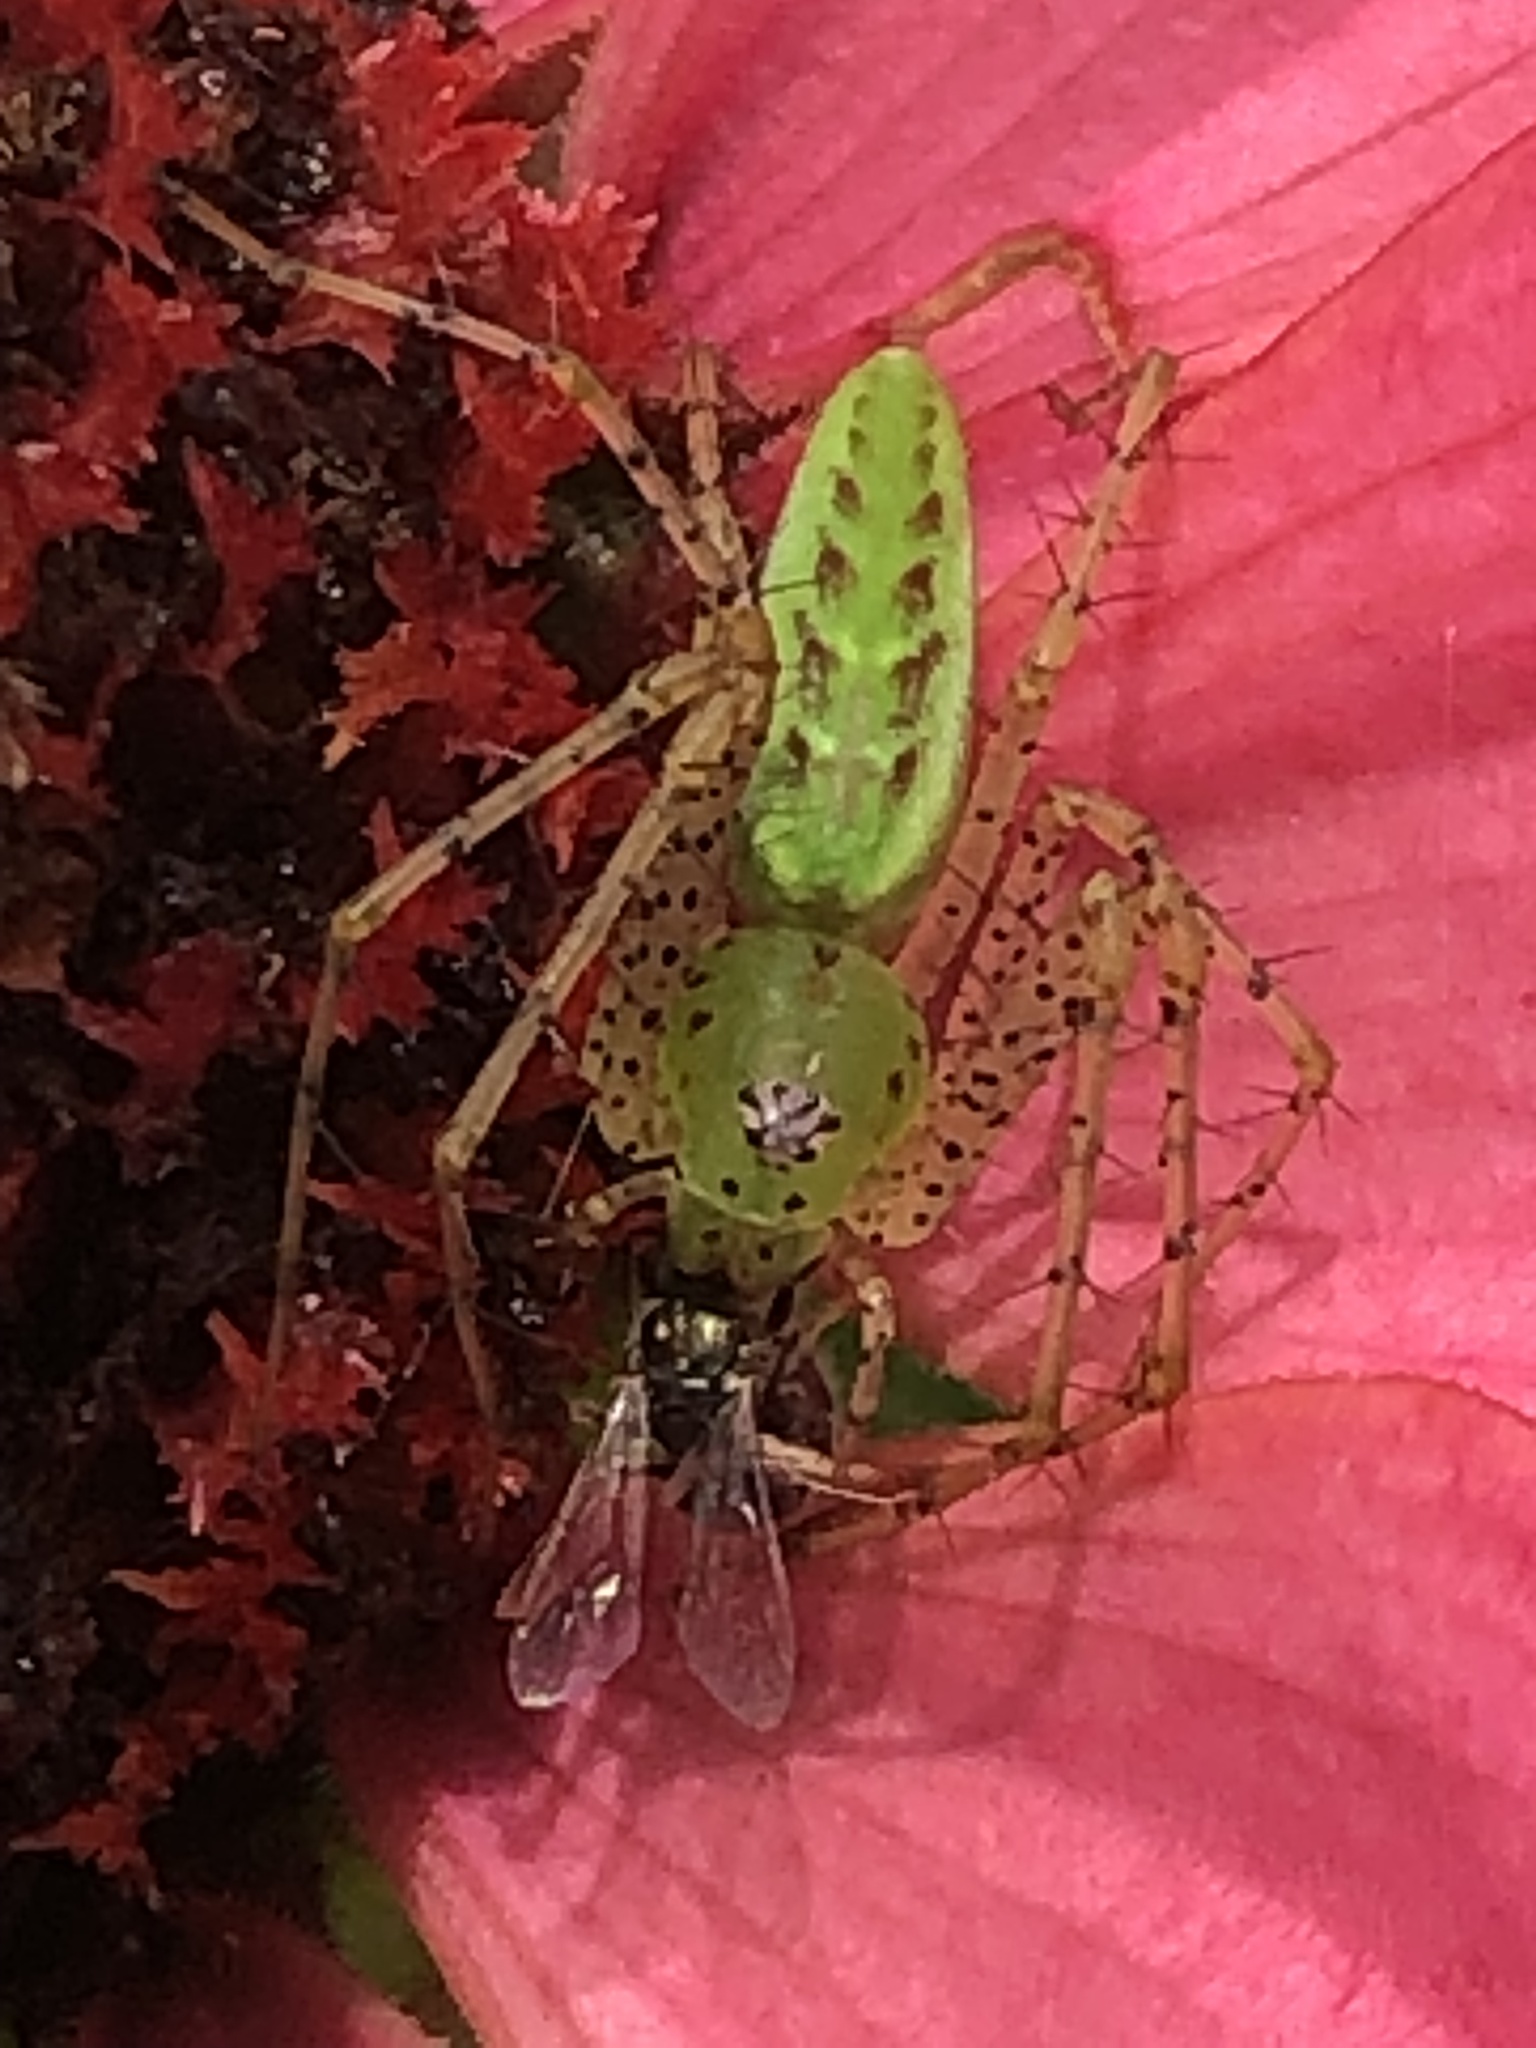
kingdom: Animalia
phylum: Arthropoda
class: Arachnida
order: Araneae
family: Oxyopidae
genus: Peucetia
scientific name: Peucetia viridans
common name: Lynx spiders
